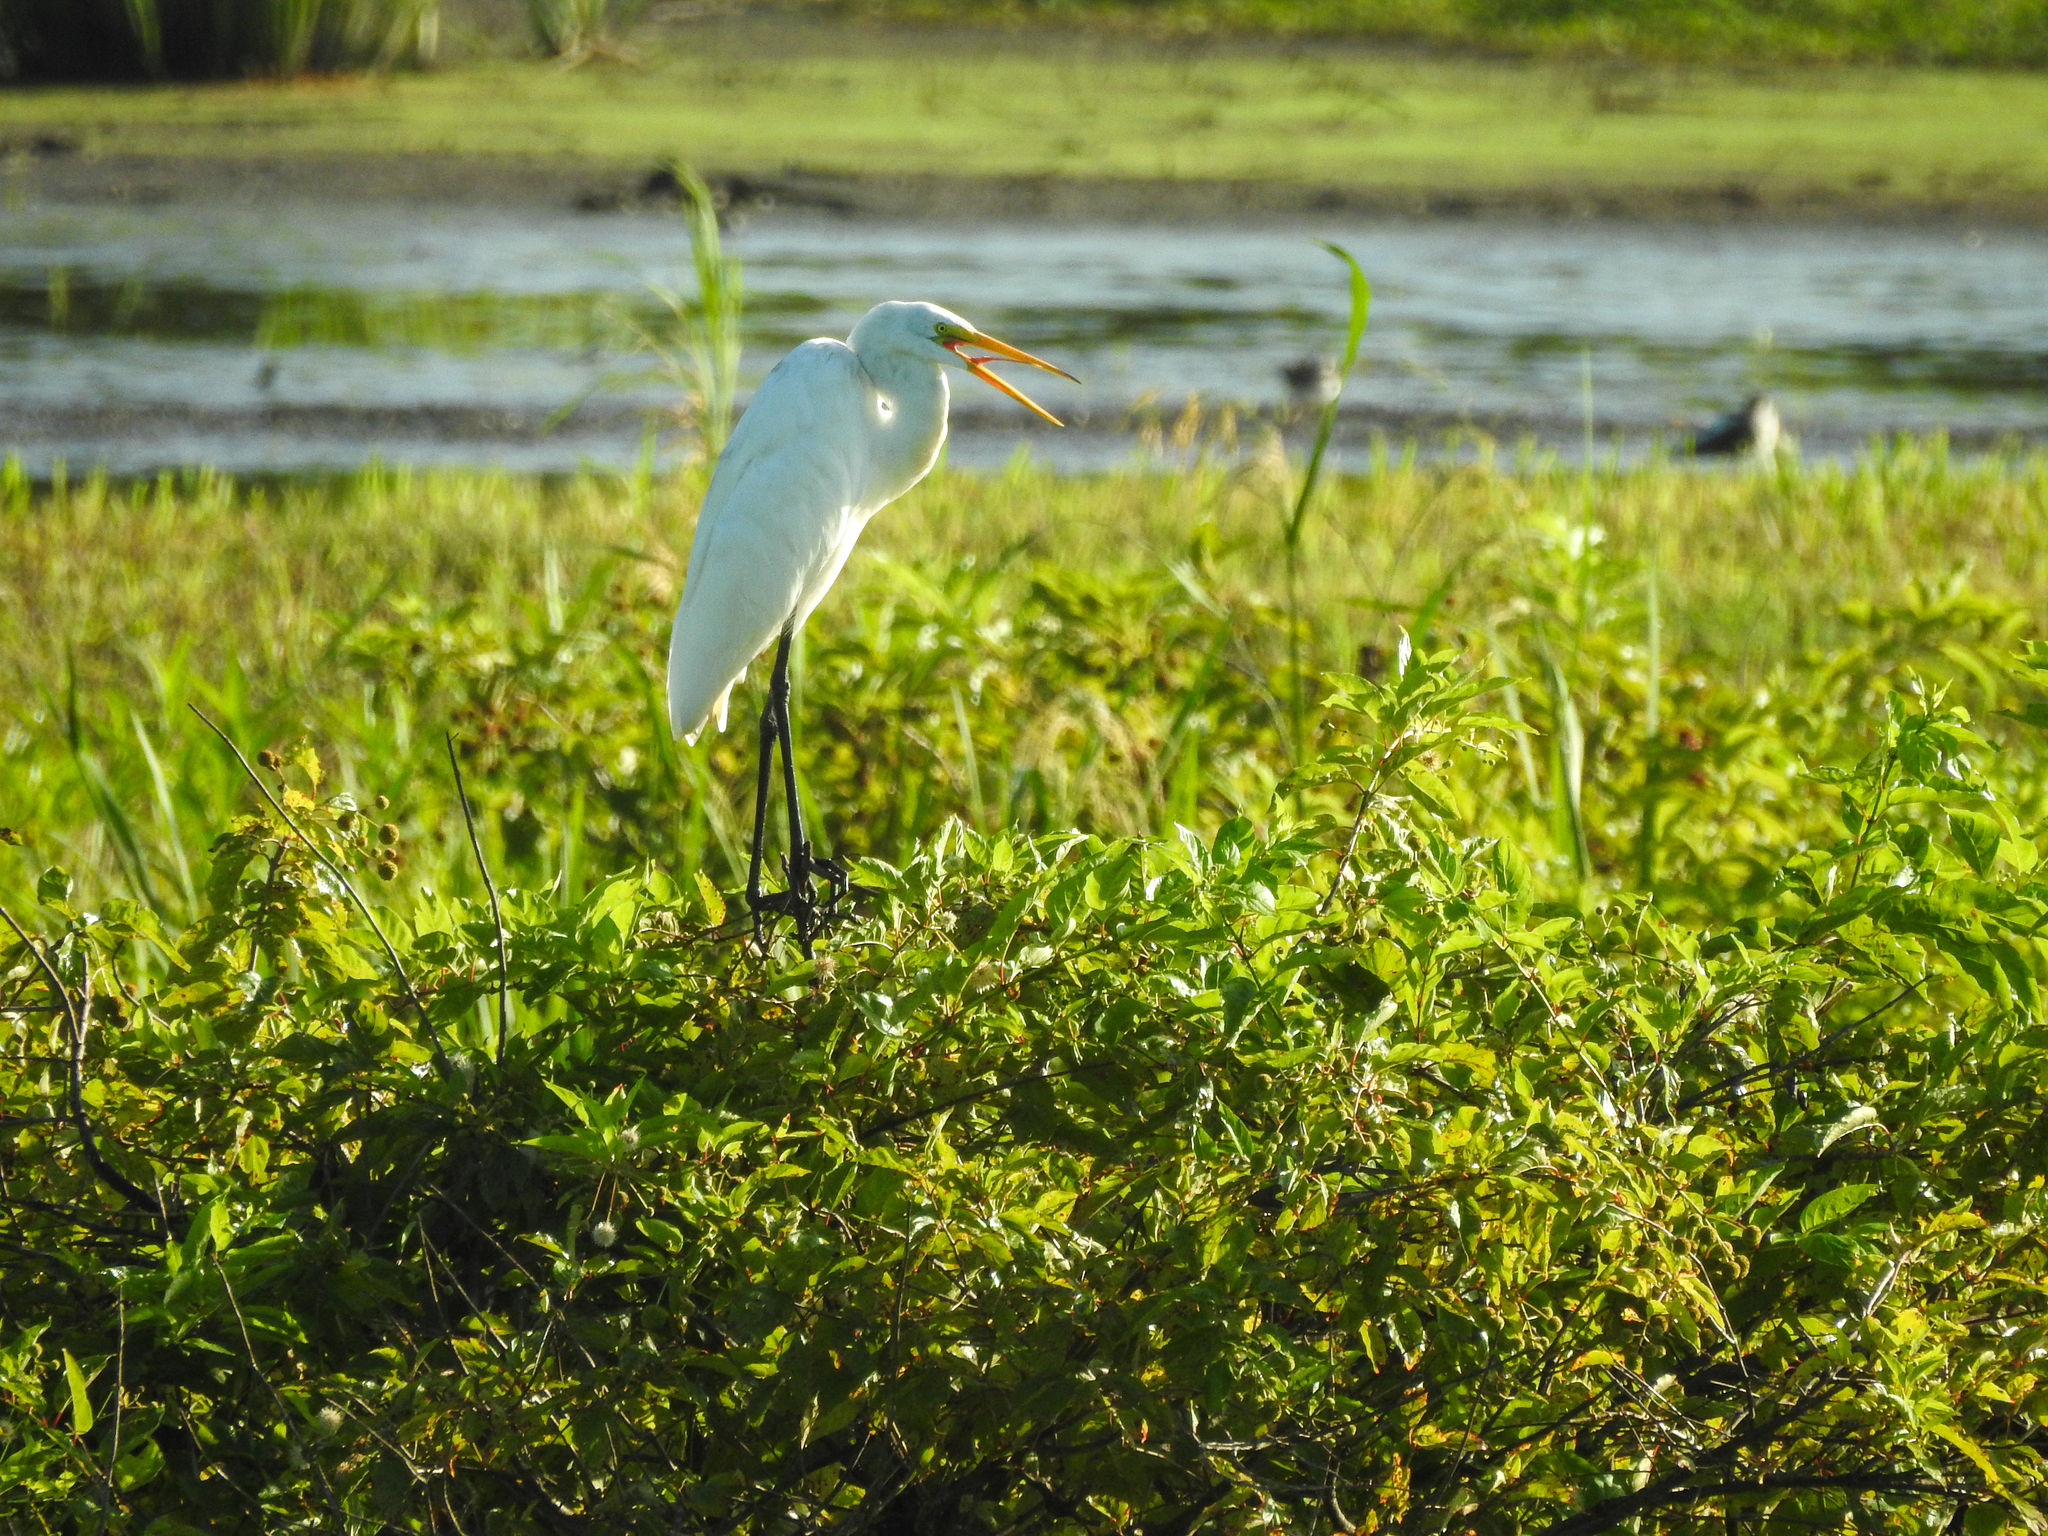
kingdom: Animalia
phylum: Chordata
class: Aves
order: Pelecaniformes
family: Ardeidae
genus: Ardea
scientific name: Ardea alba
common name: Great egret
